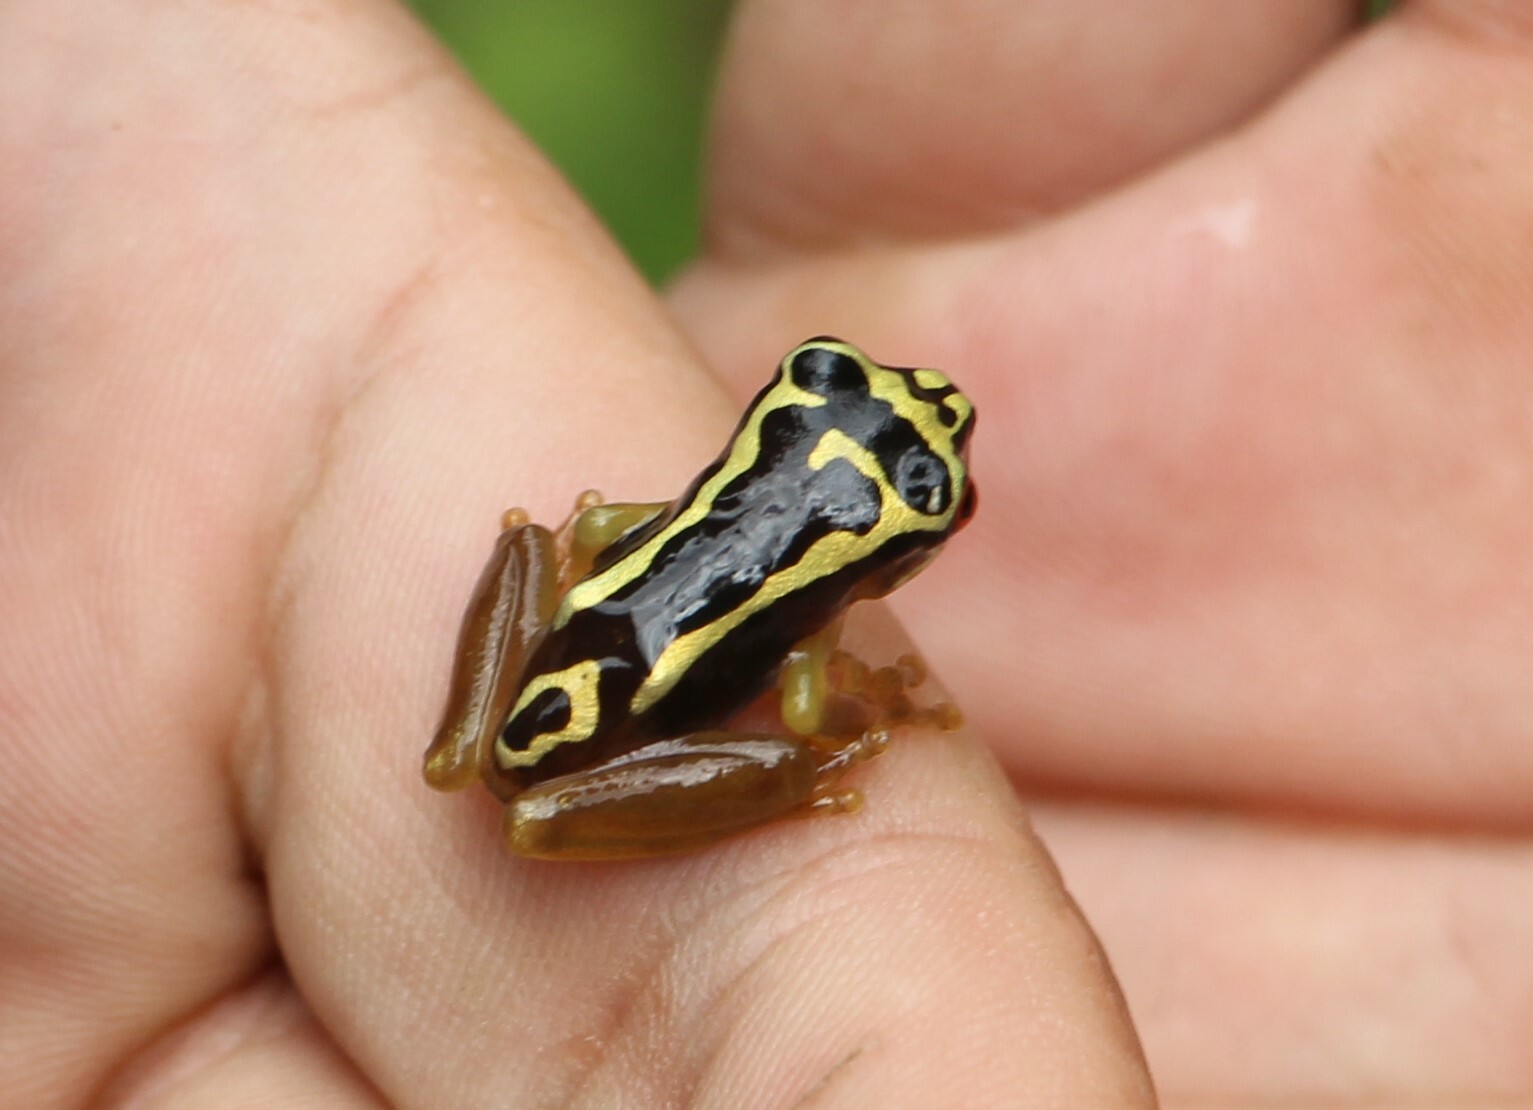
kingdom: Animalia
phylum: Chordata
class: Amphibia
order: Anura
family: Hylidae
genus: Osteocephalus
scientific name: Osteocephalus carri
